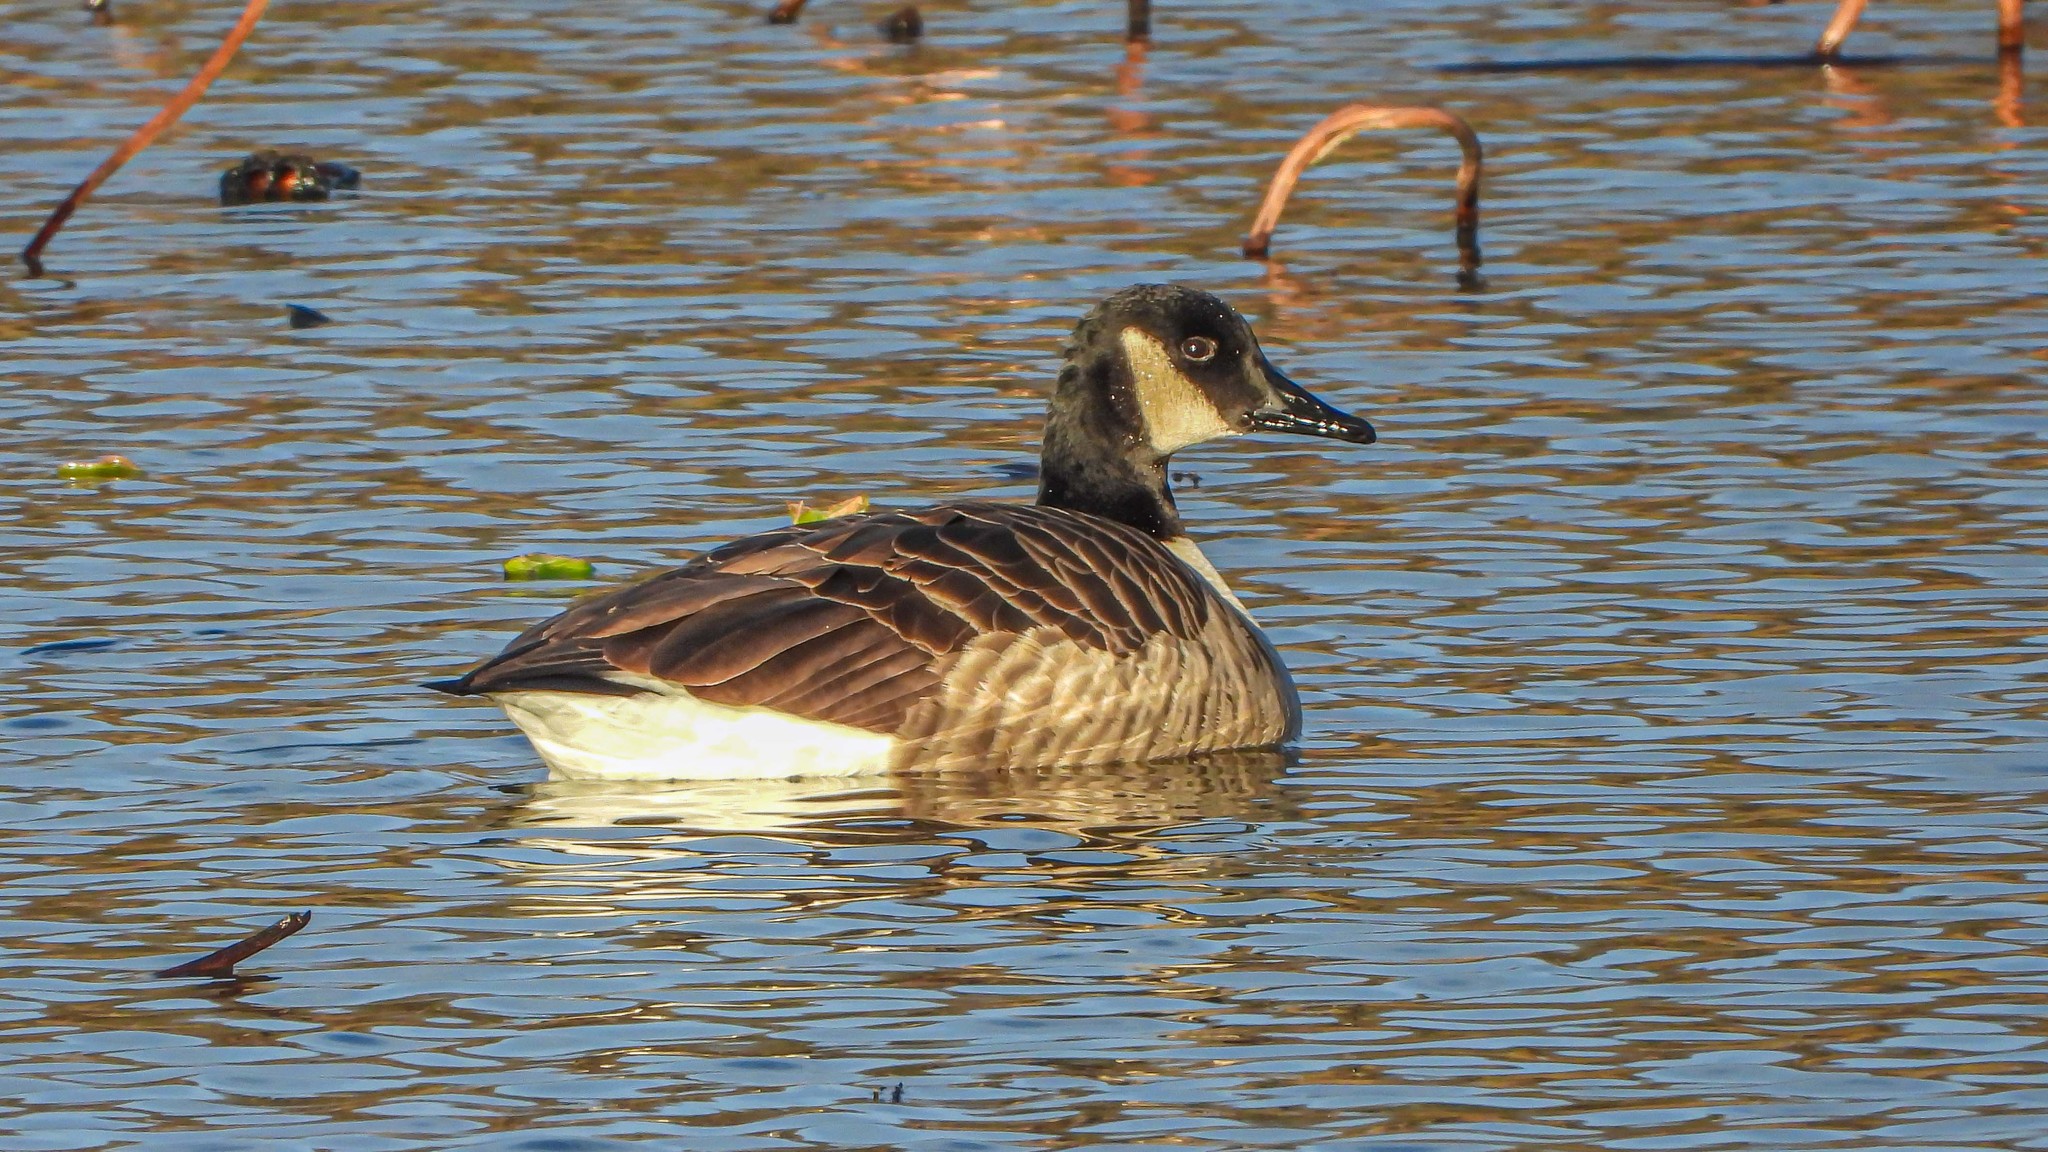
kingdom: Animalia
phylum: Chordata
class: Aves
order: Anseriformes
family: Anatidae
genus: Branta
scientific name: Branta canadensis
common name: Canada goose
